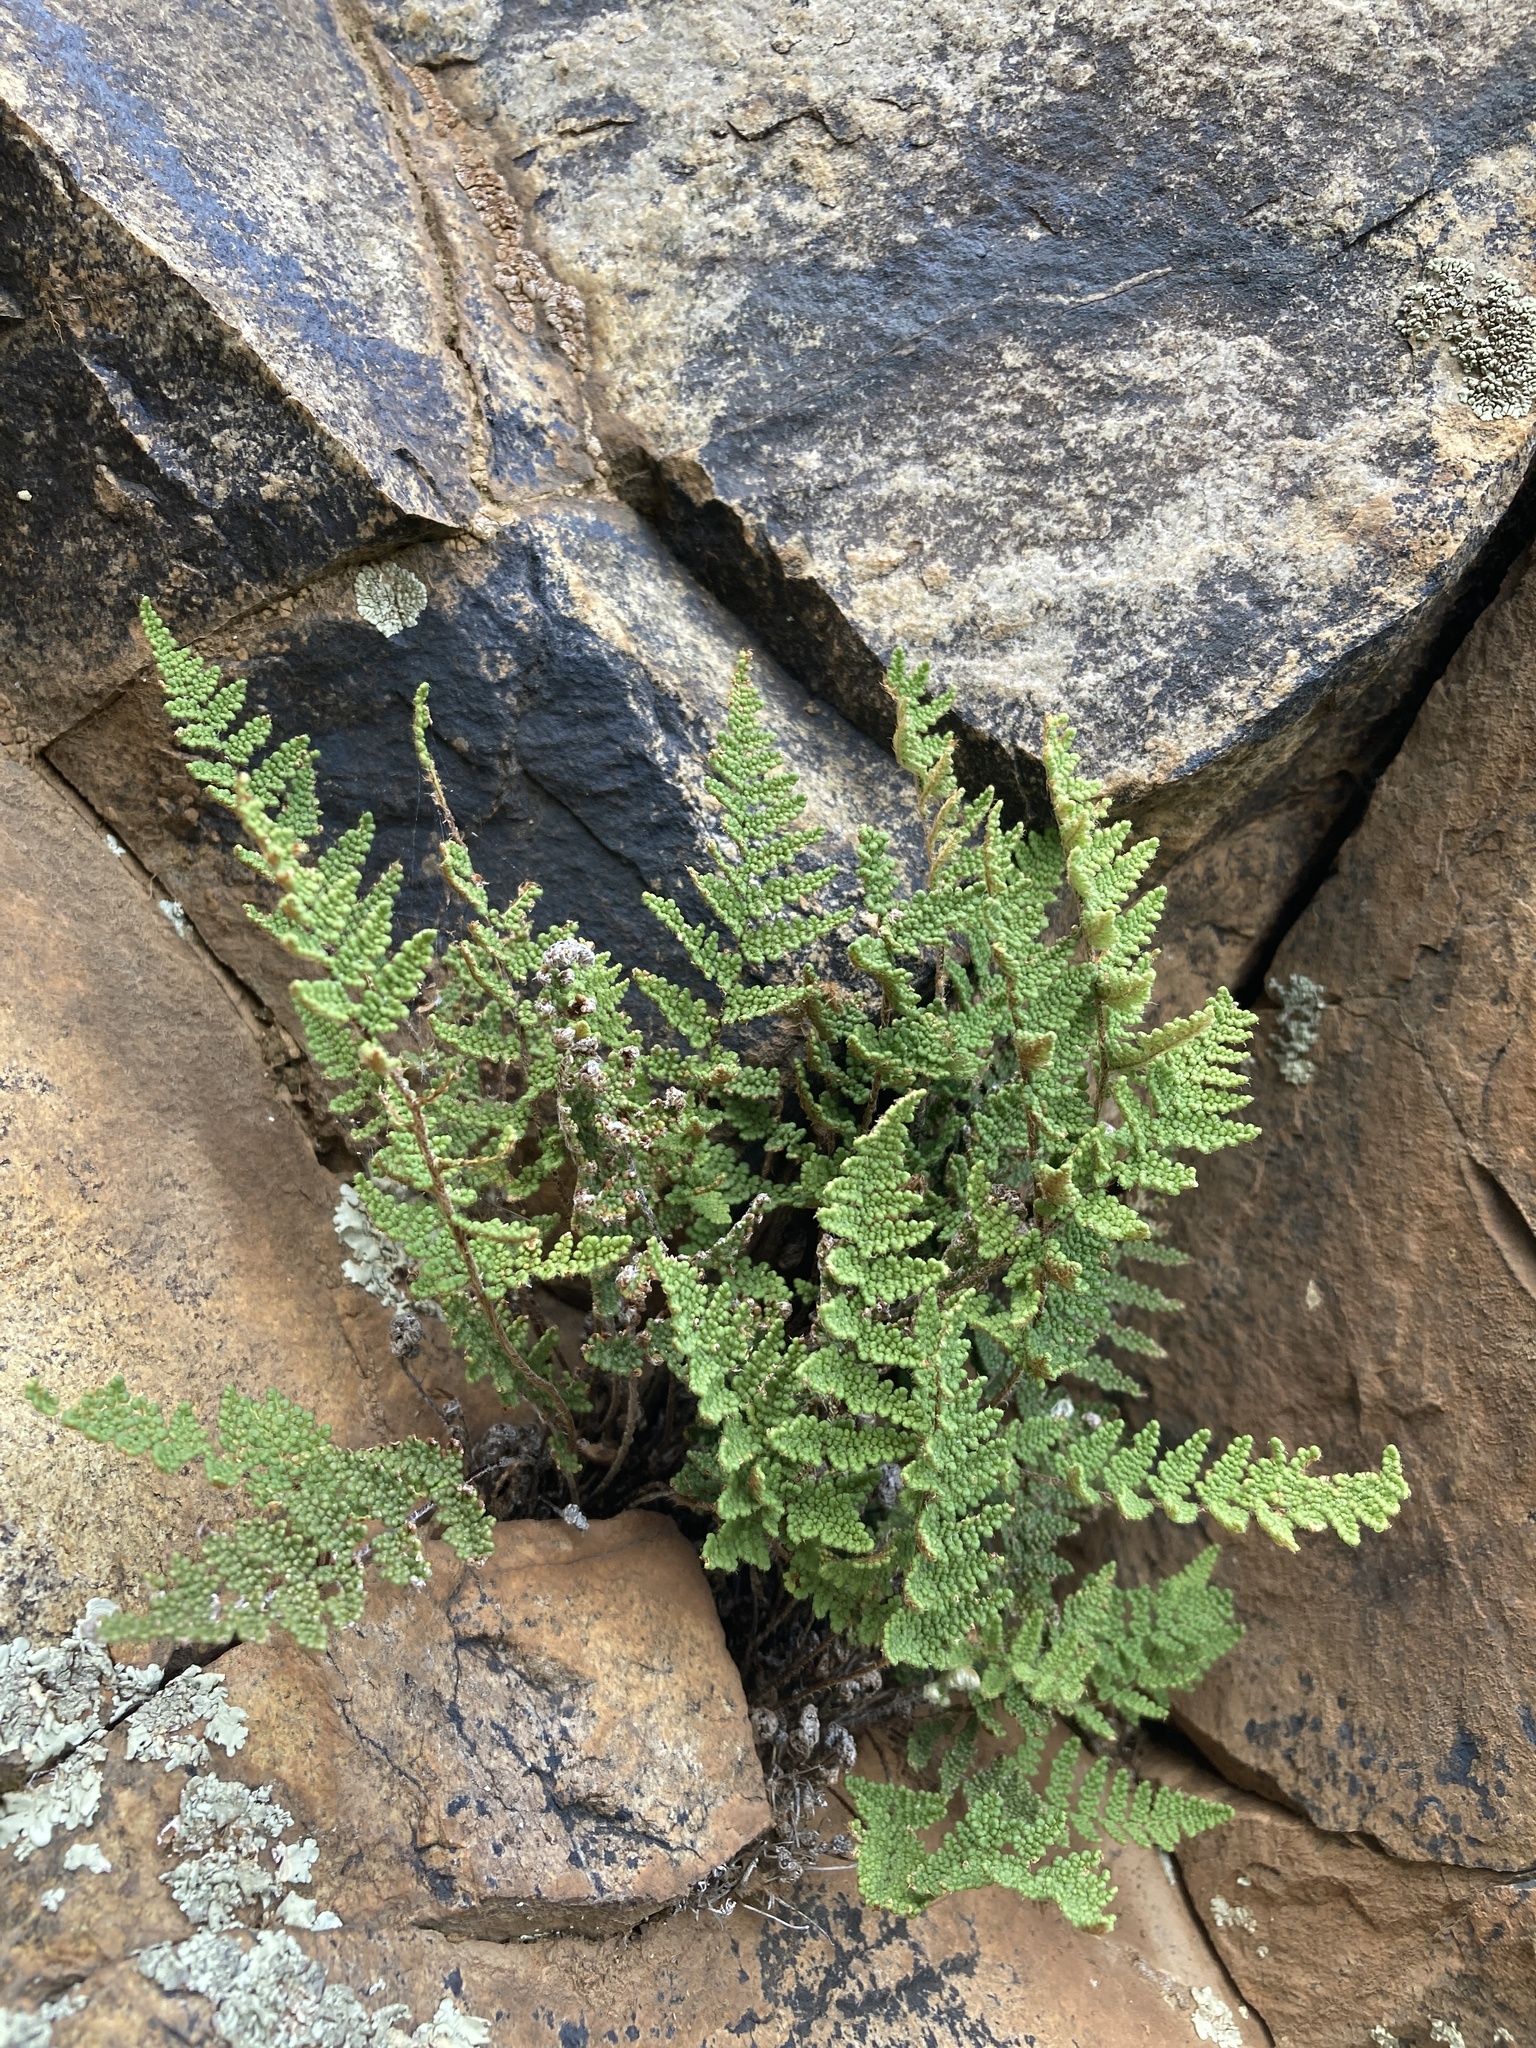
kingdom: Plantae
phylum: Tracheophyta
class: Polypodiopsida
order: Polypodiales
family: Pteridaceae
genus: Myriopteris
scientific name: Myriopteris wootonii
